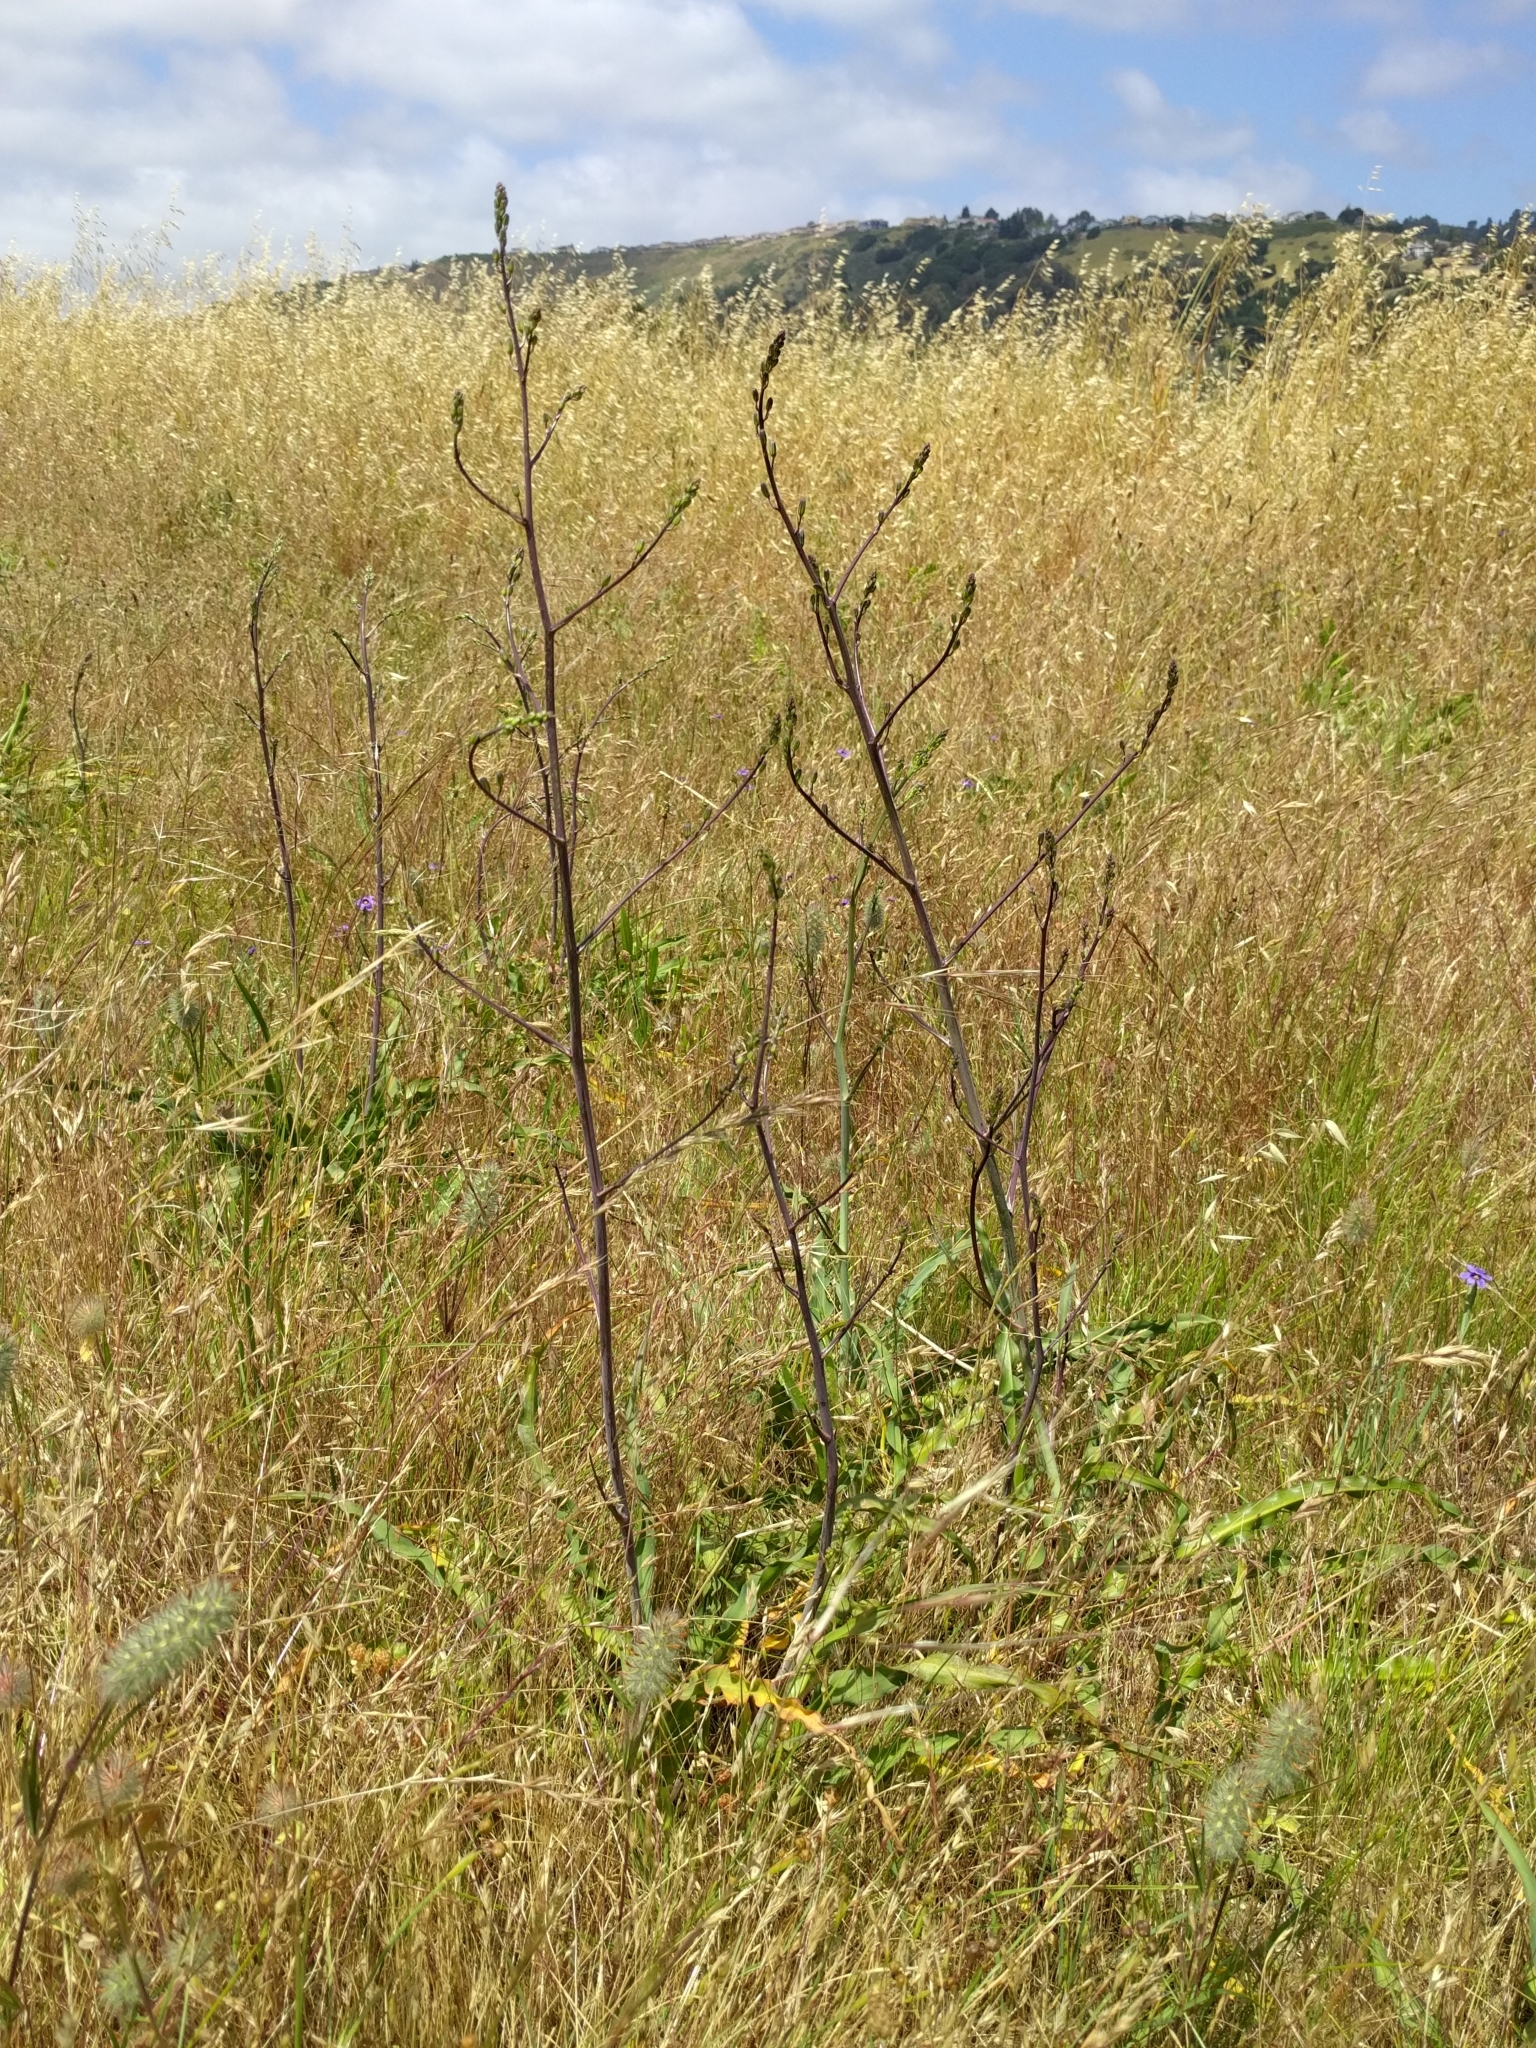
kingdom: Plantae
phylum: Tracheophyta
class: Liliopsida
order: Asparagales
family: Asparagaceae
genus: Chlorogalum
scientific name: Chlorogalum pomeridianum
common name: Amole
